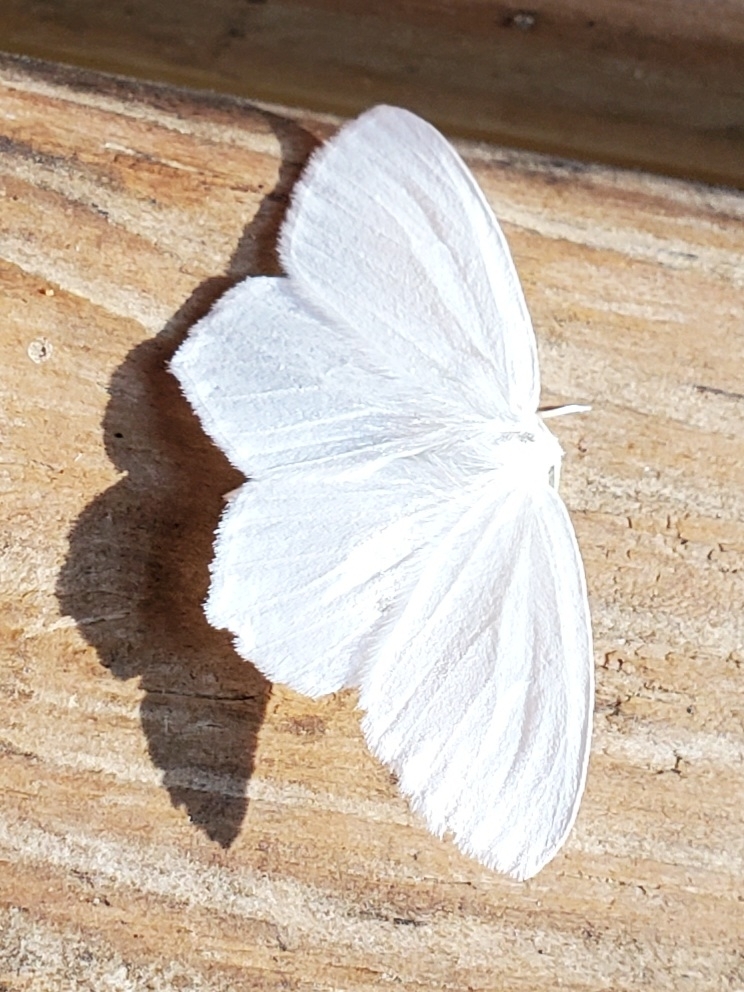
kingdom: Animalia
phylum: Arthropoda
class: Insecta
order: Lepidoptera
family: Geometridae
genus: Eugonobapta
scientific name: Eugonobapta nivosaria
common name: Snowy geometer
